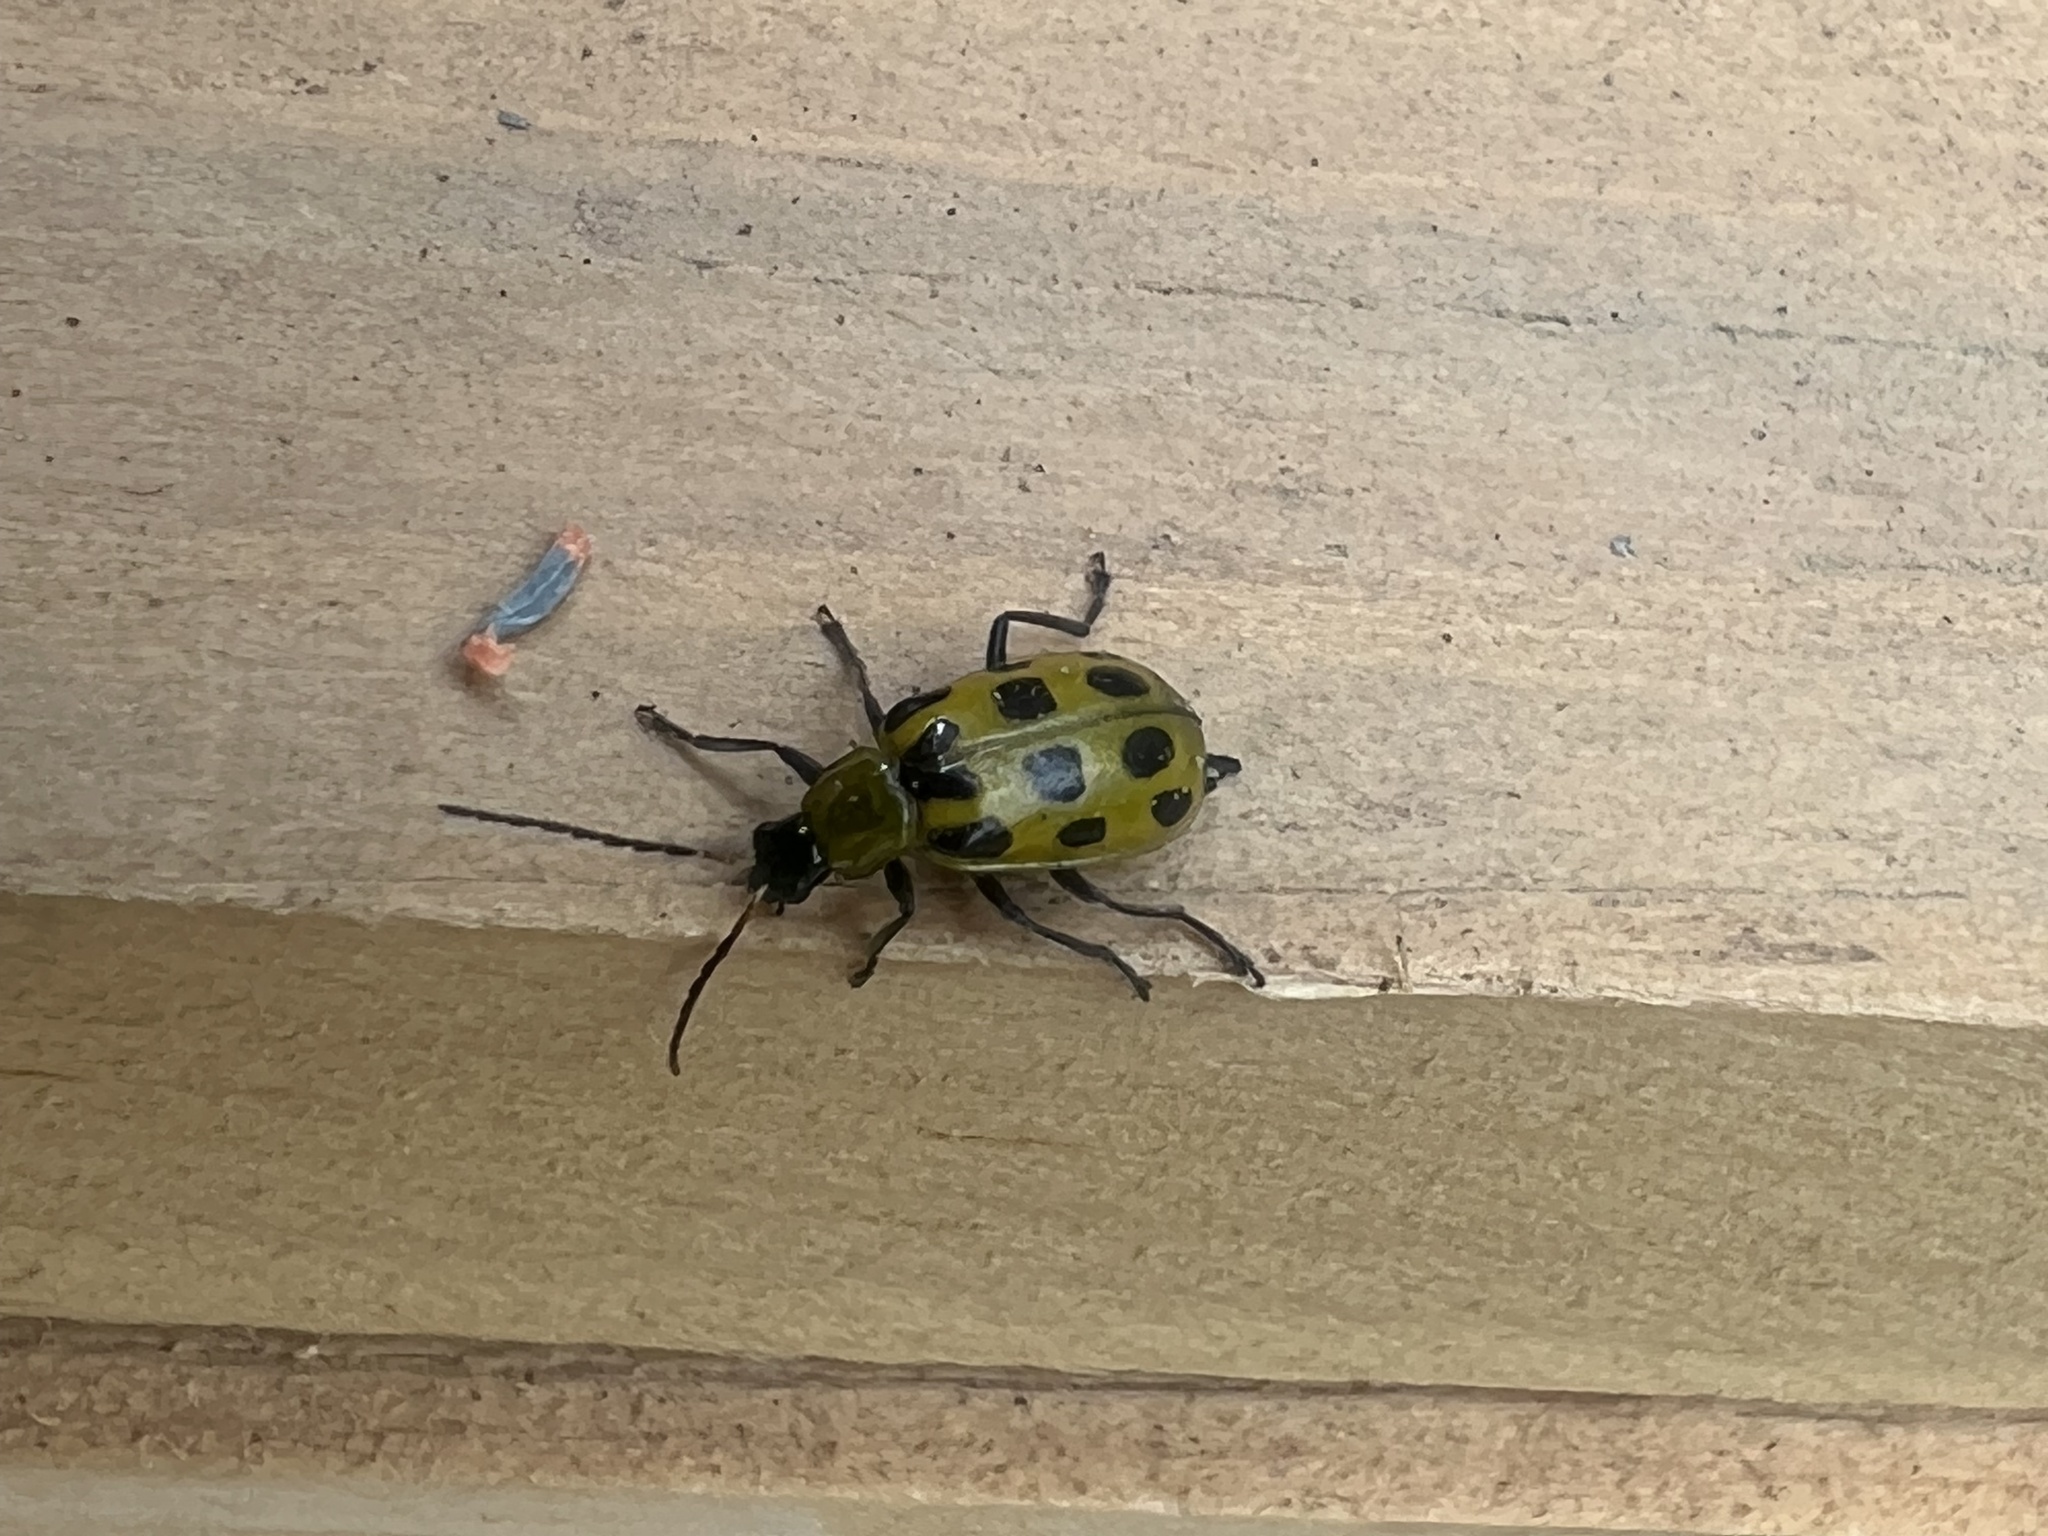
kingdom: Animalia
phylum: Arthropoda
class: Insecta
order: Coleoptera
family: Chrysomelidae
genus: Diabrotica
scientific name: Diabrotica undecimpunctata
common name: Spotted cucumber beetle
